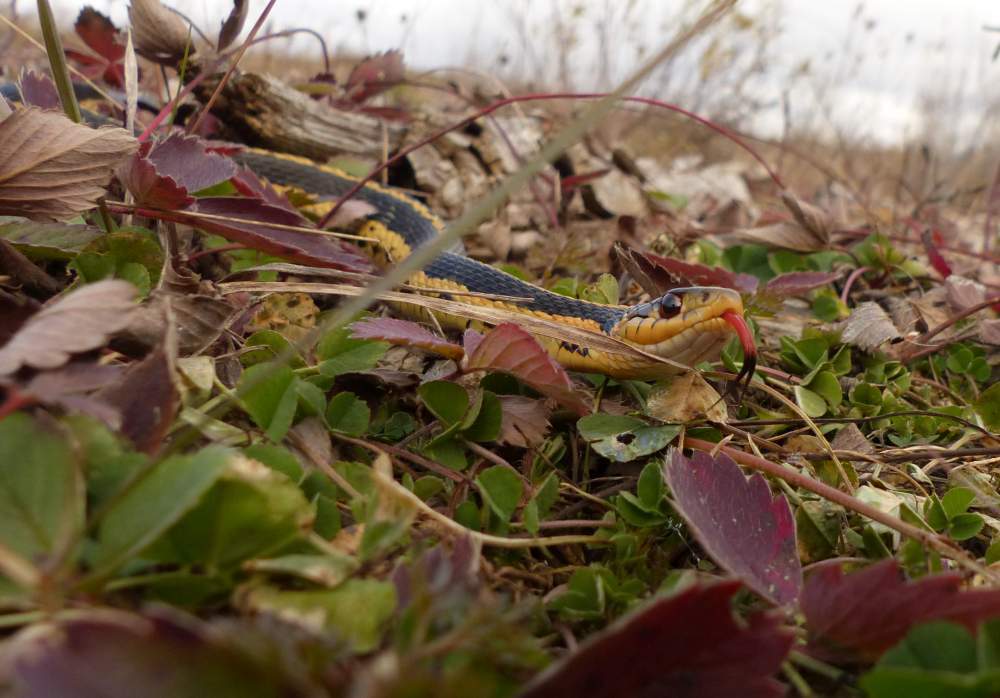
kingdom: Animalia
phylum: Chordata
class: Squamata
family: Colubridae
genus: Thamnophis
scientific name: Thamnophis sirtalis
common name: Common garter snake
